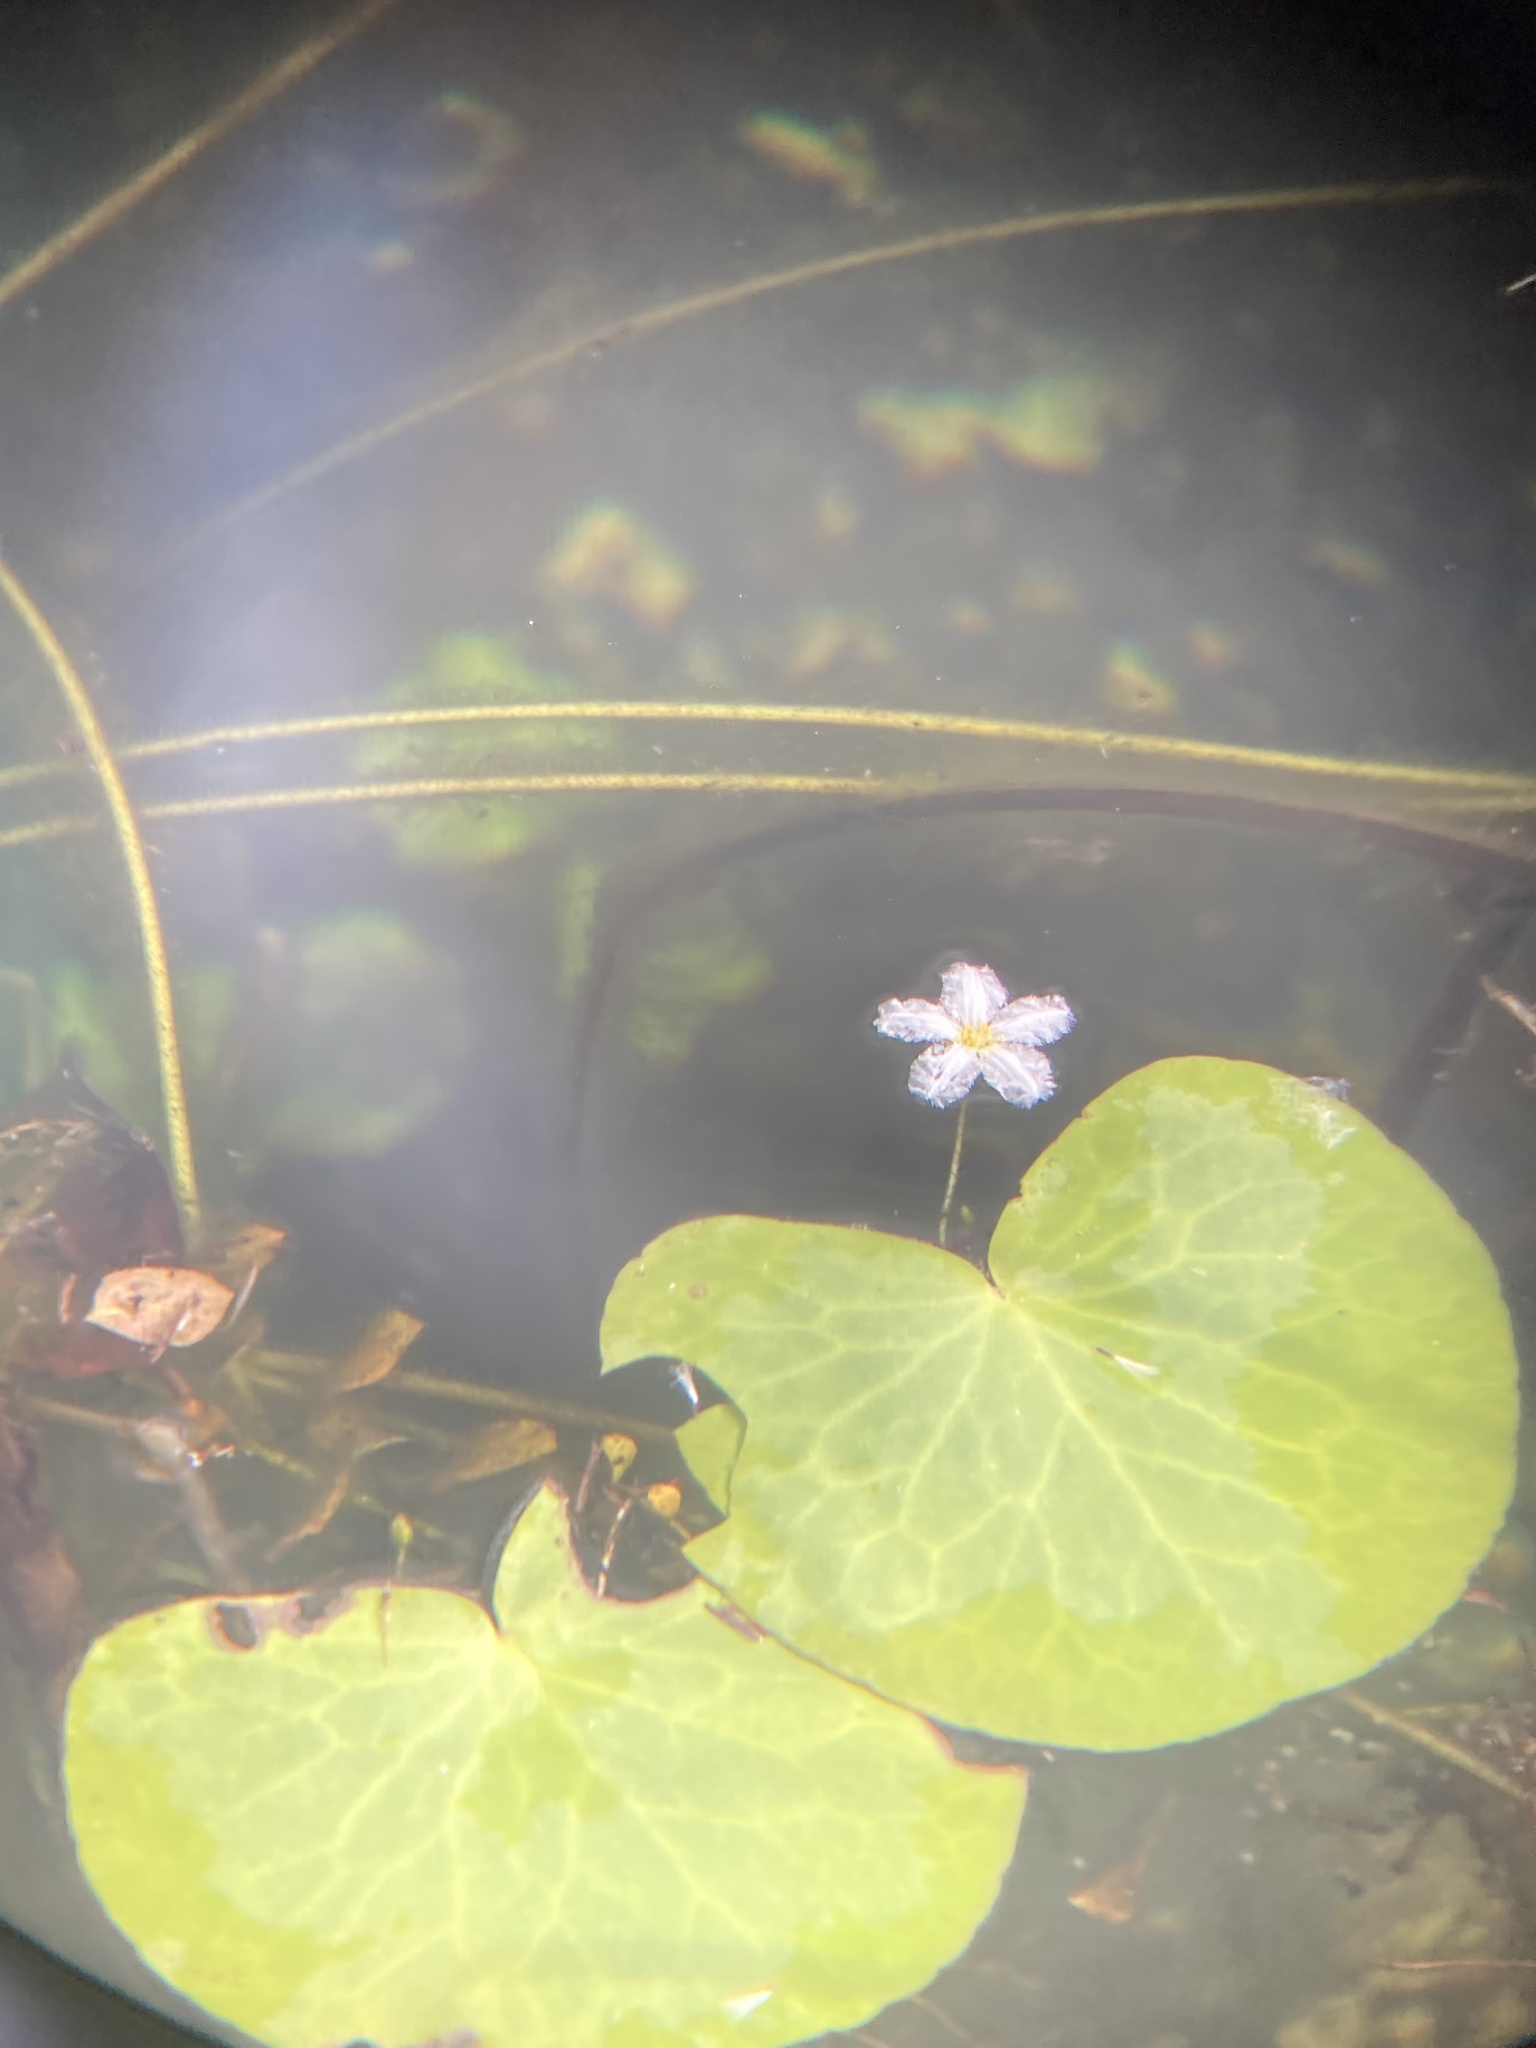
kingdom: Plantae
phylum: Tracheophyta
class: Magnoliopsida
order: Asterales
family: Menyanthaceae
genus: Nymphoides
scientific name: Nymphoides aquatica
